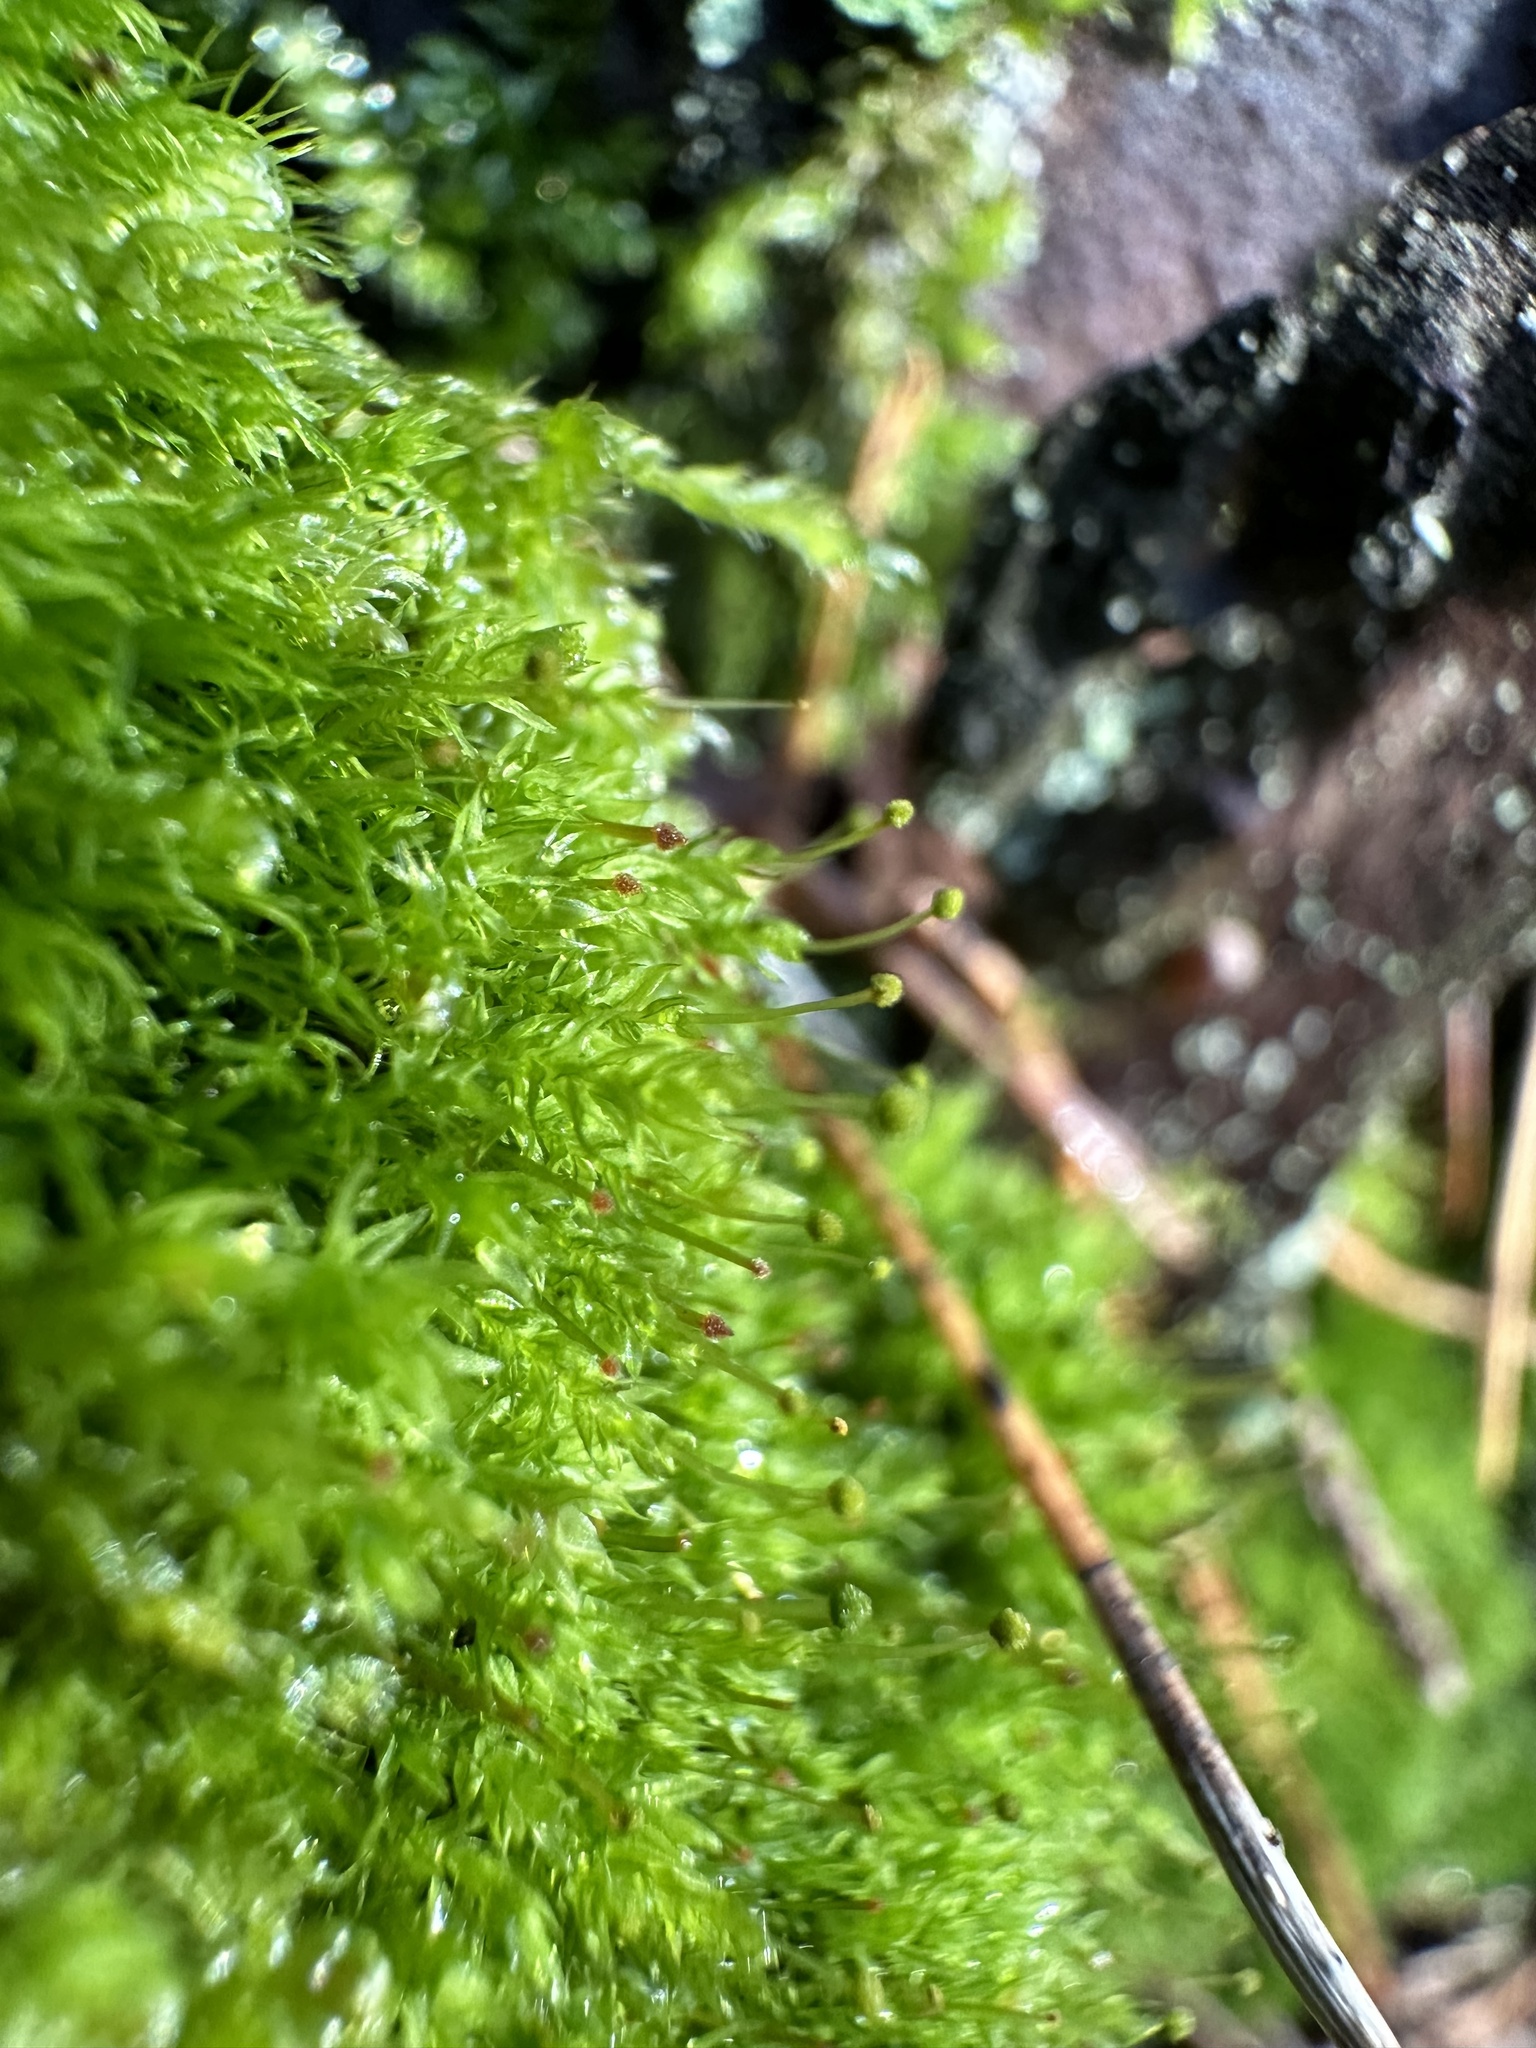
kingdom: Plantae
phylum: Bryophyta
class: Bryopsida
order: Aulacomniales
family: Aulacomniaceae
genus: Aulacomnium
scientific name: Aulacomnium androgynum
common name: Little groove moss
